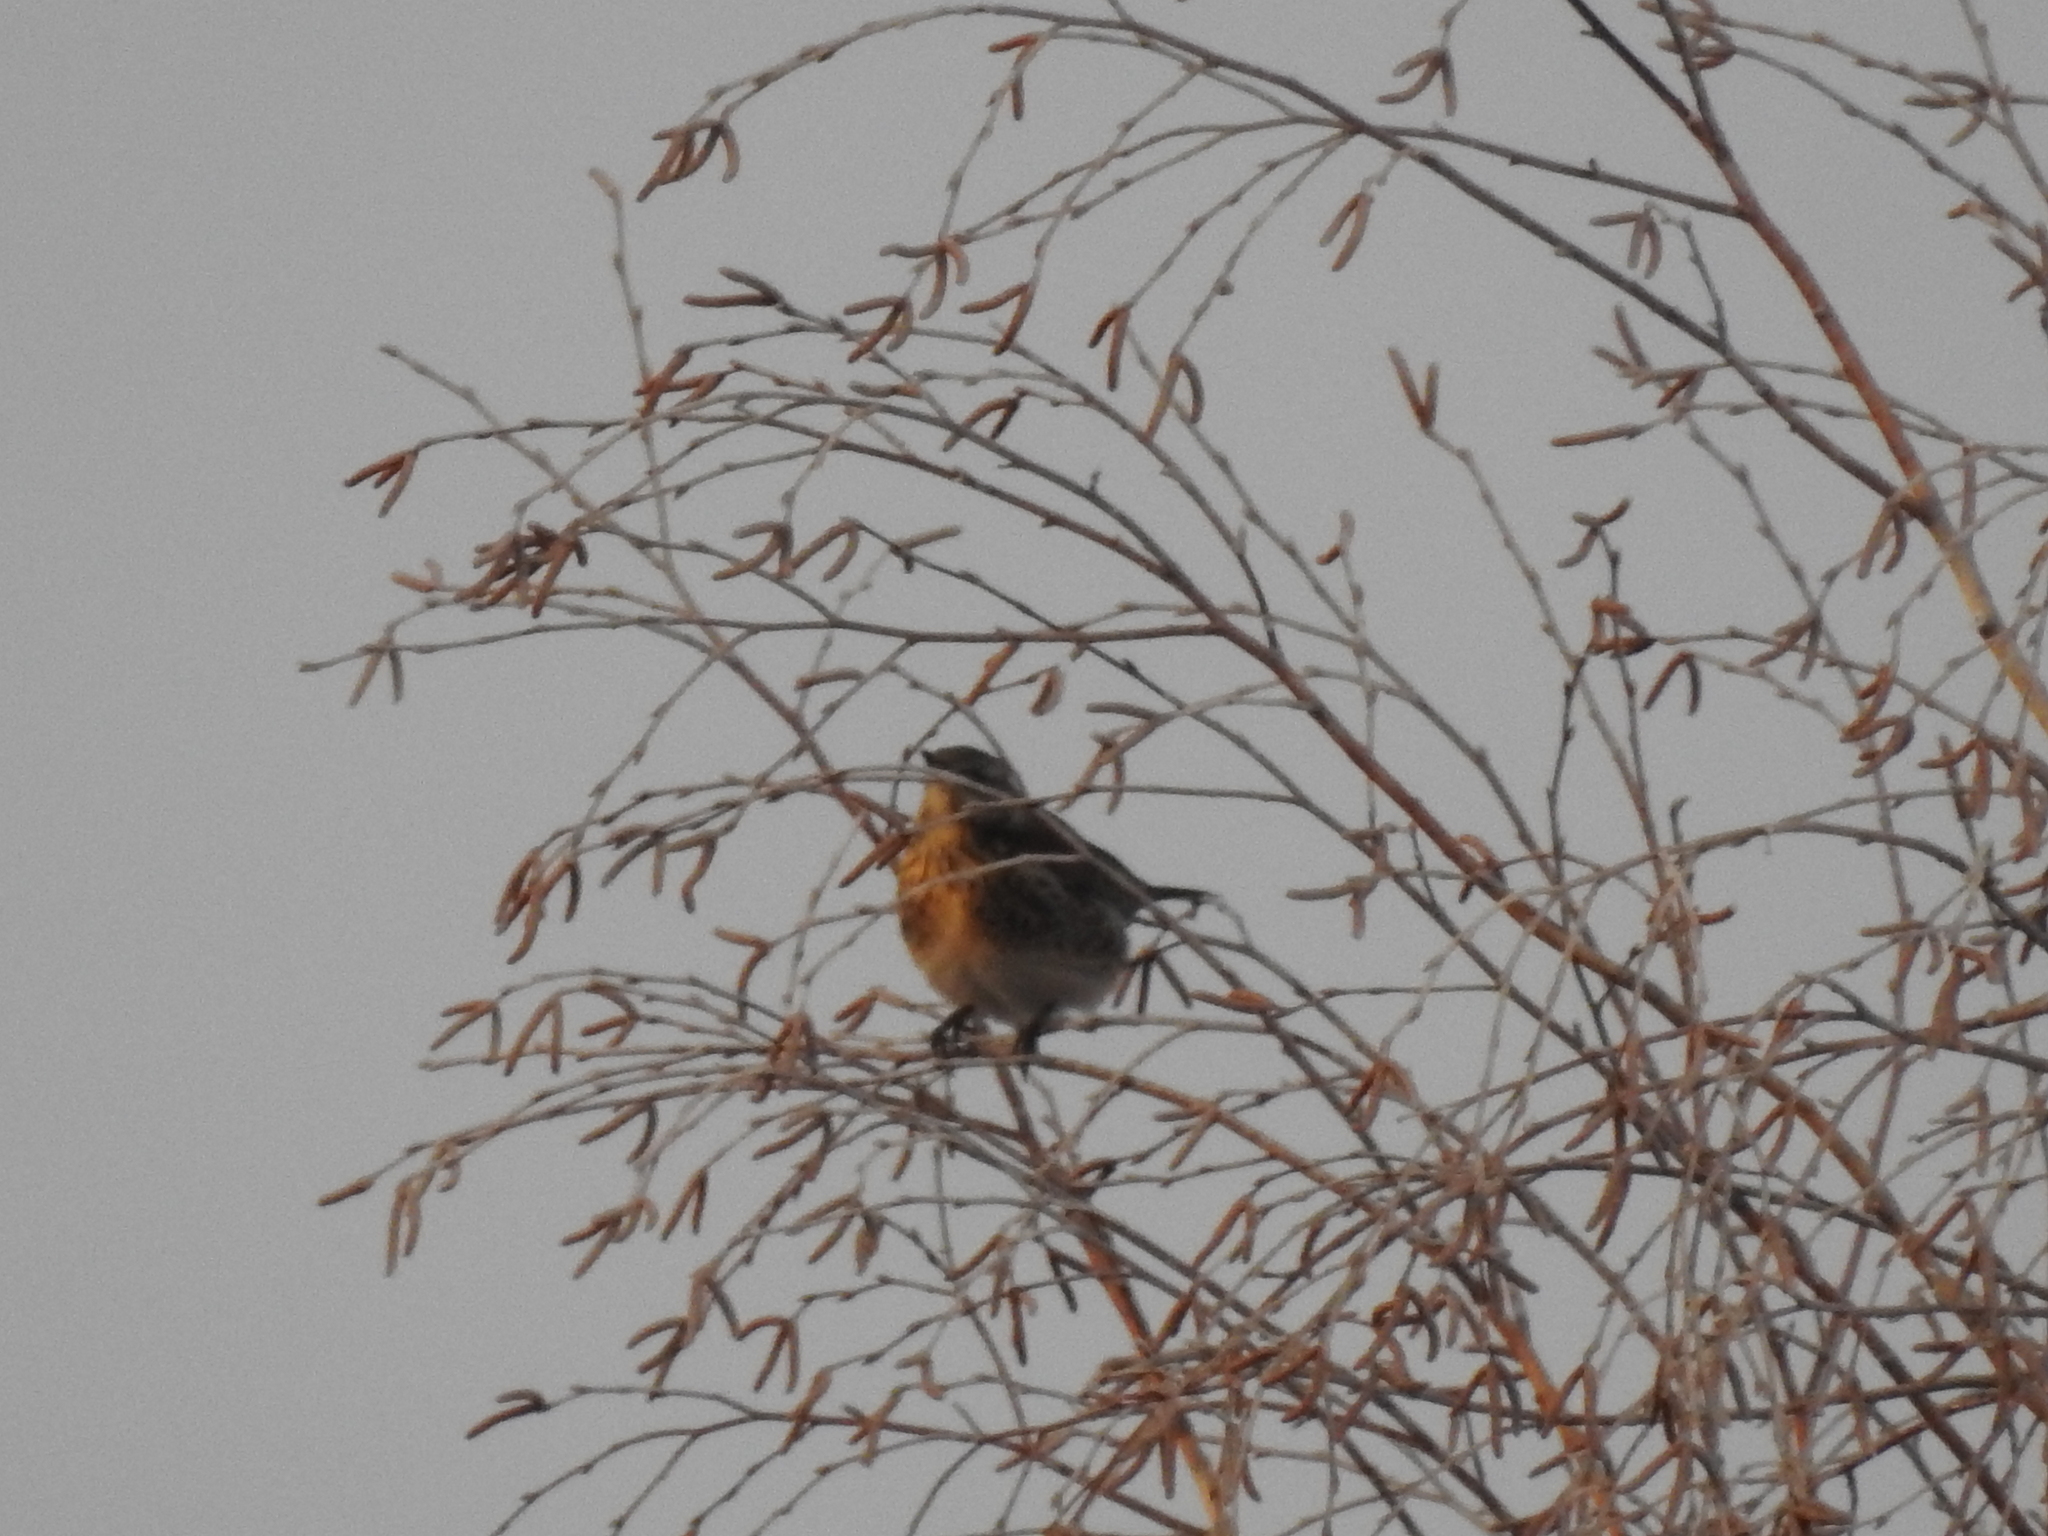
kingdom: Animalia
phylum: Chordata
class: Aves
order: Passeriformes
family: Turdidae
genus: Turdus
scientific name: Turdus pilaris
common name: Fieldfare
